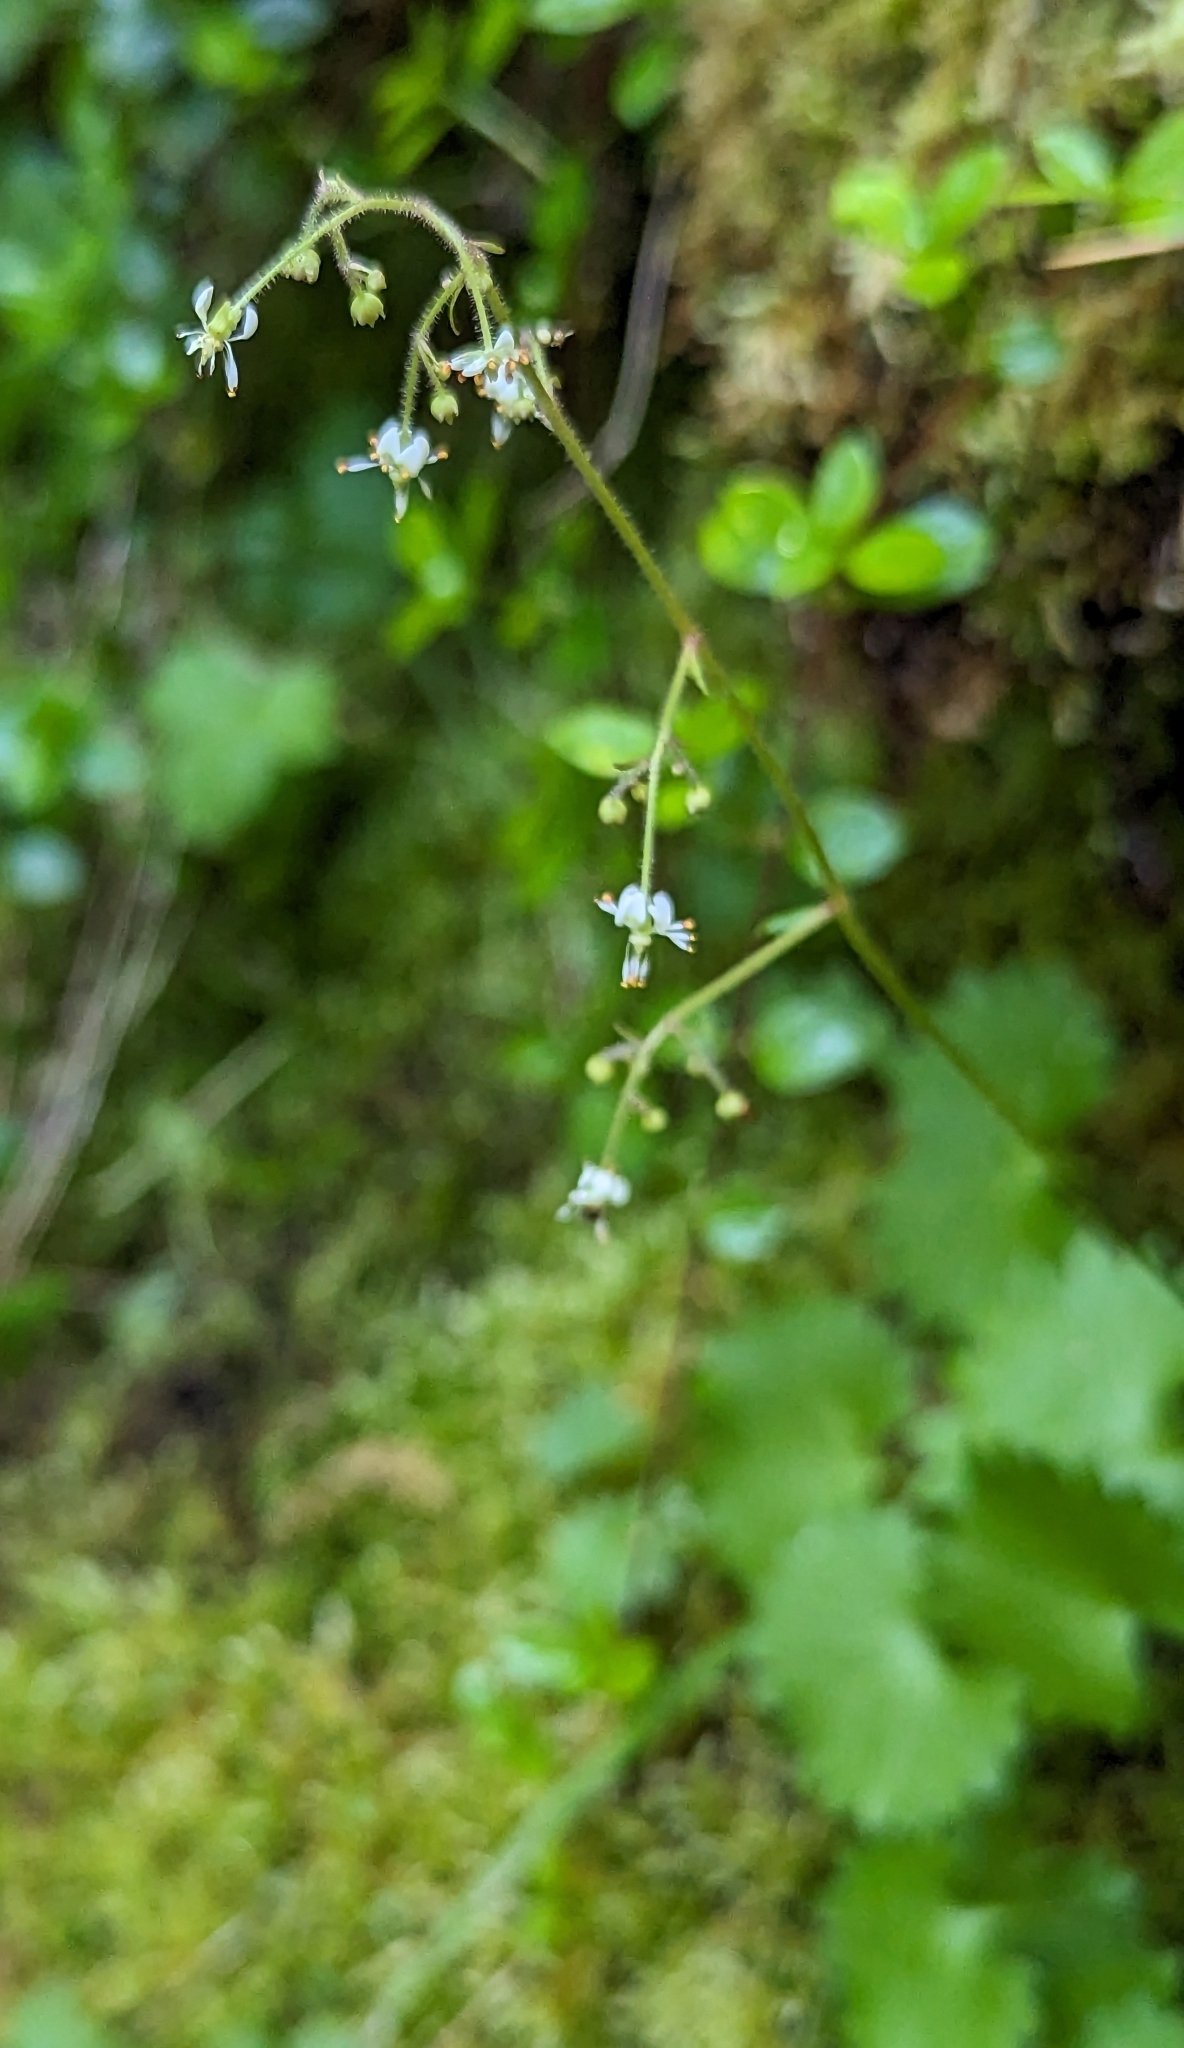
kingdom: Plantae
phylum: Tracheophyta
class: Magnoliopsida
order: Saxifragales
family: Saxifragaceae
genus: Micranthes
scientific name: Micranthes odontoloma
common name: Brook saxifrage
